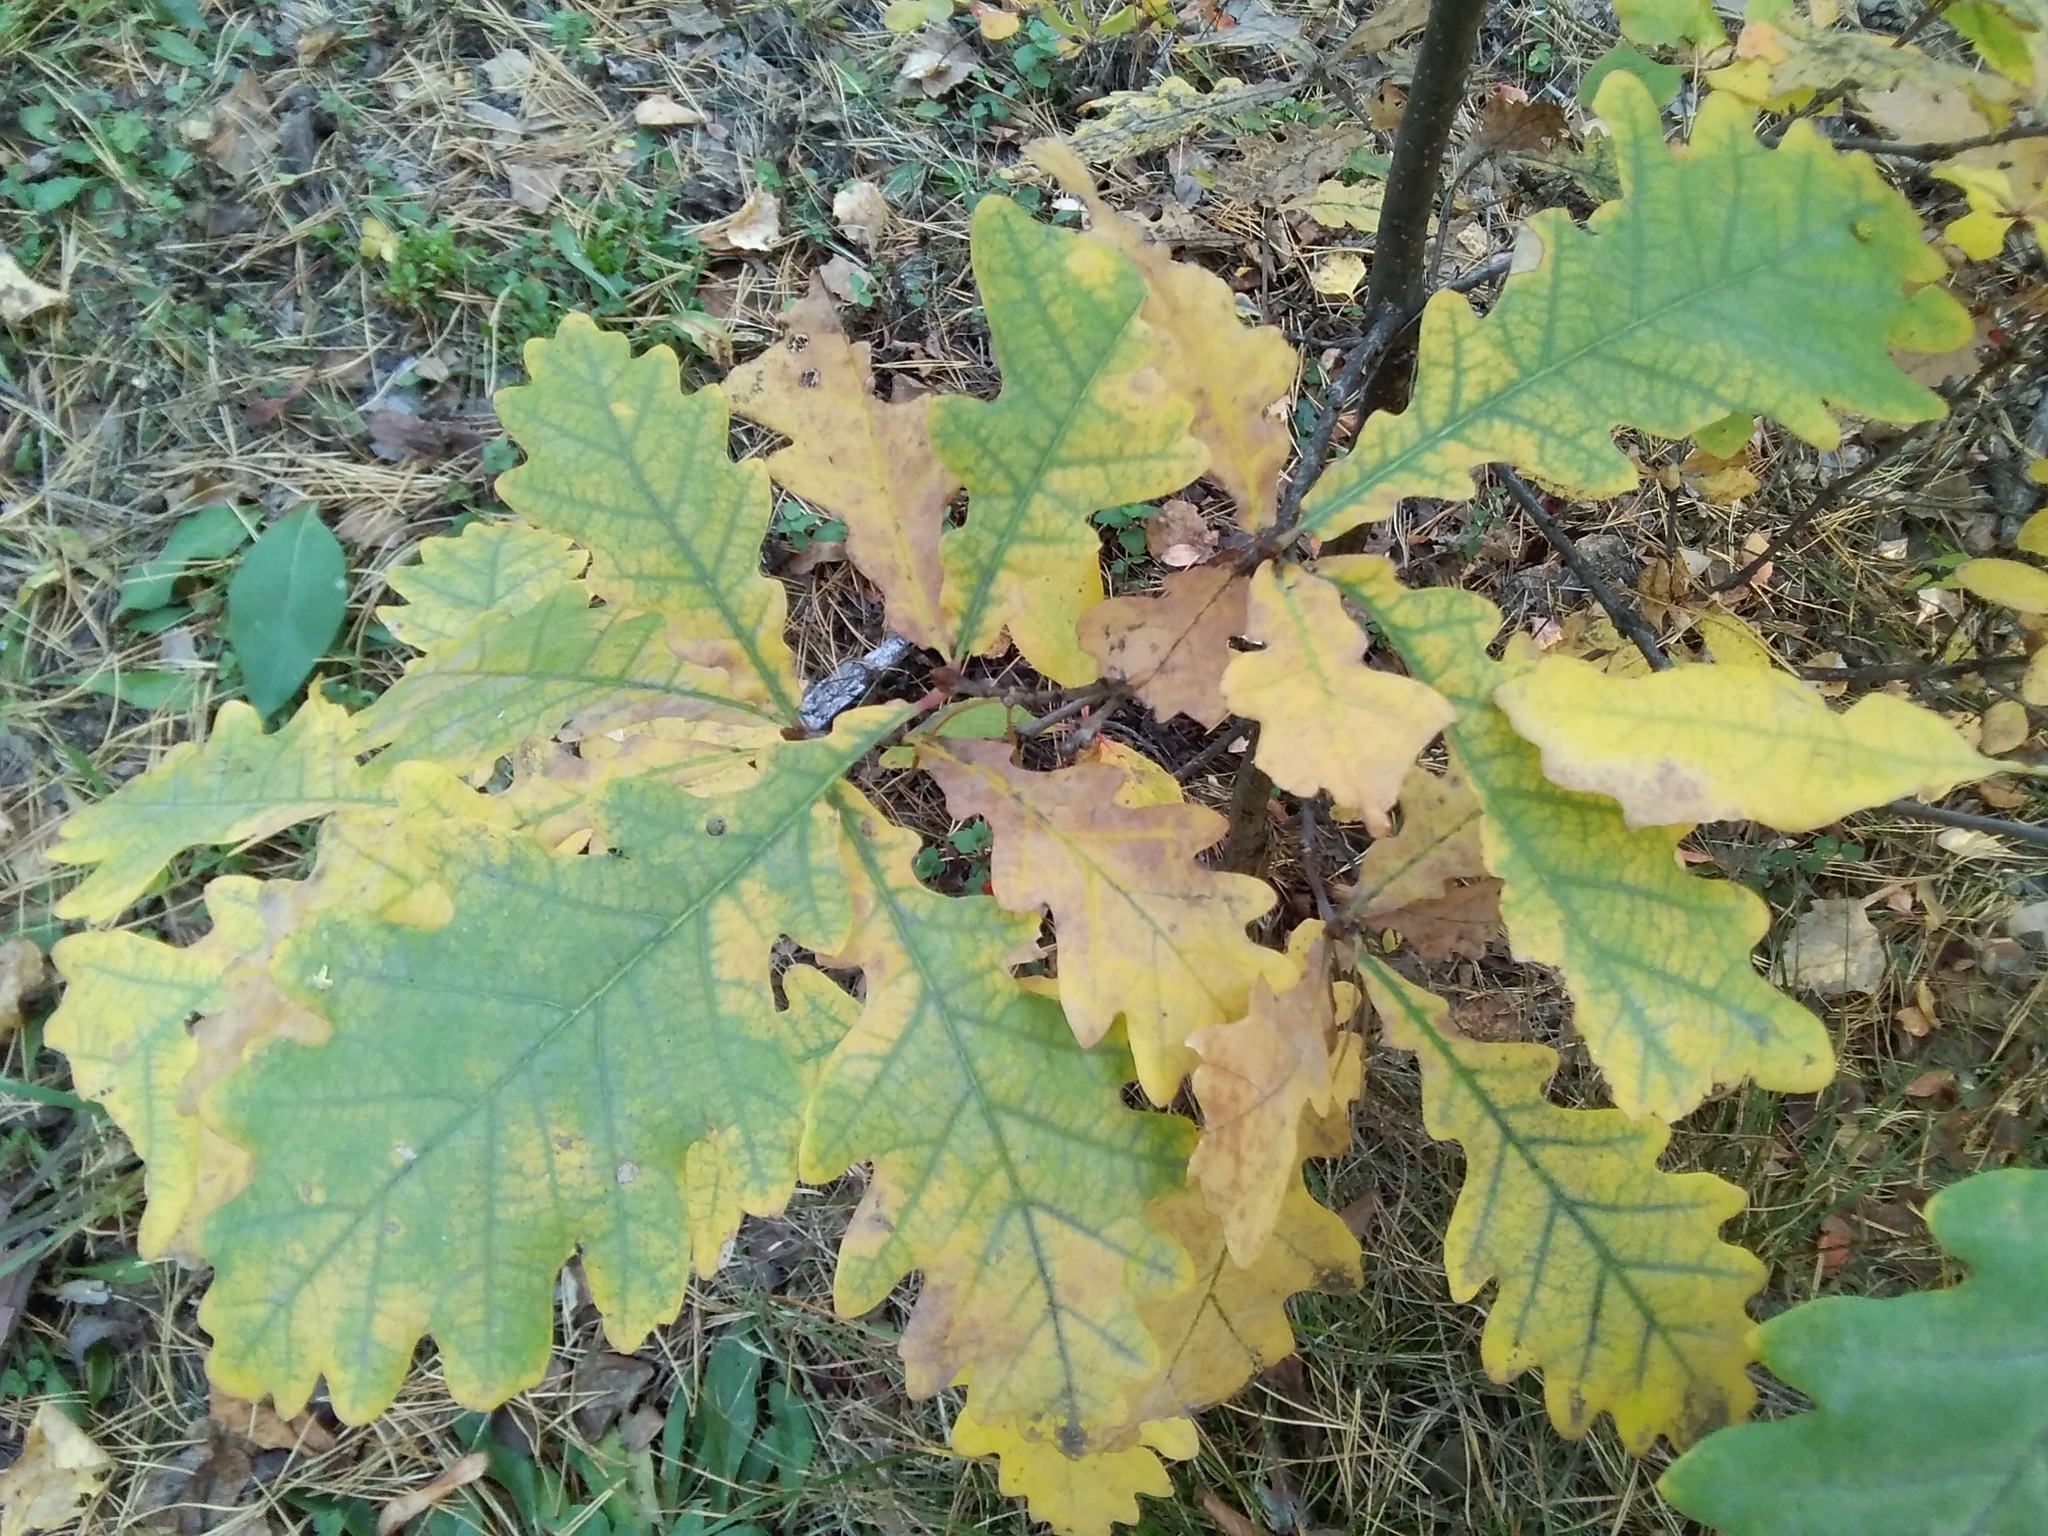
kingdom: Plantae
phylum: Tracheophyta
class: Magnoliopsida
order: Fagales
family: Fagaceae
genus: Quercus
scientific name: Quercus robur
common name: Pedunculate oak
